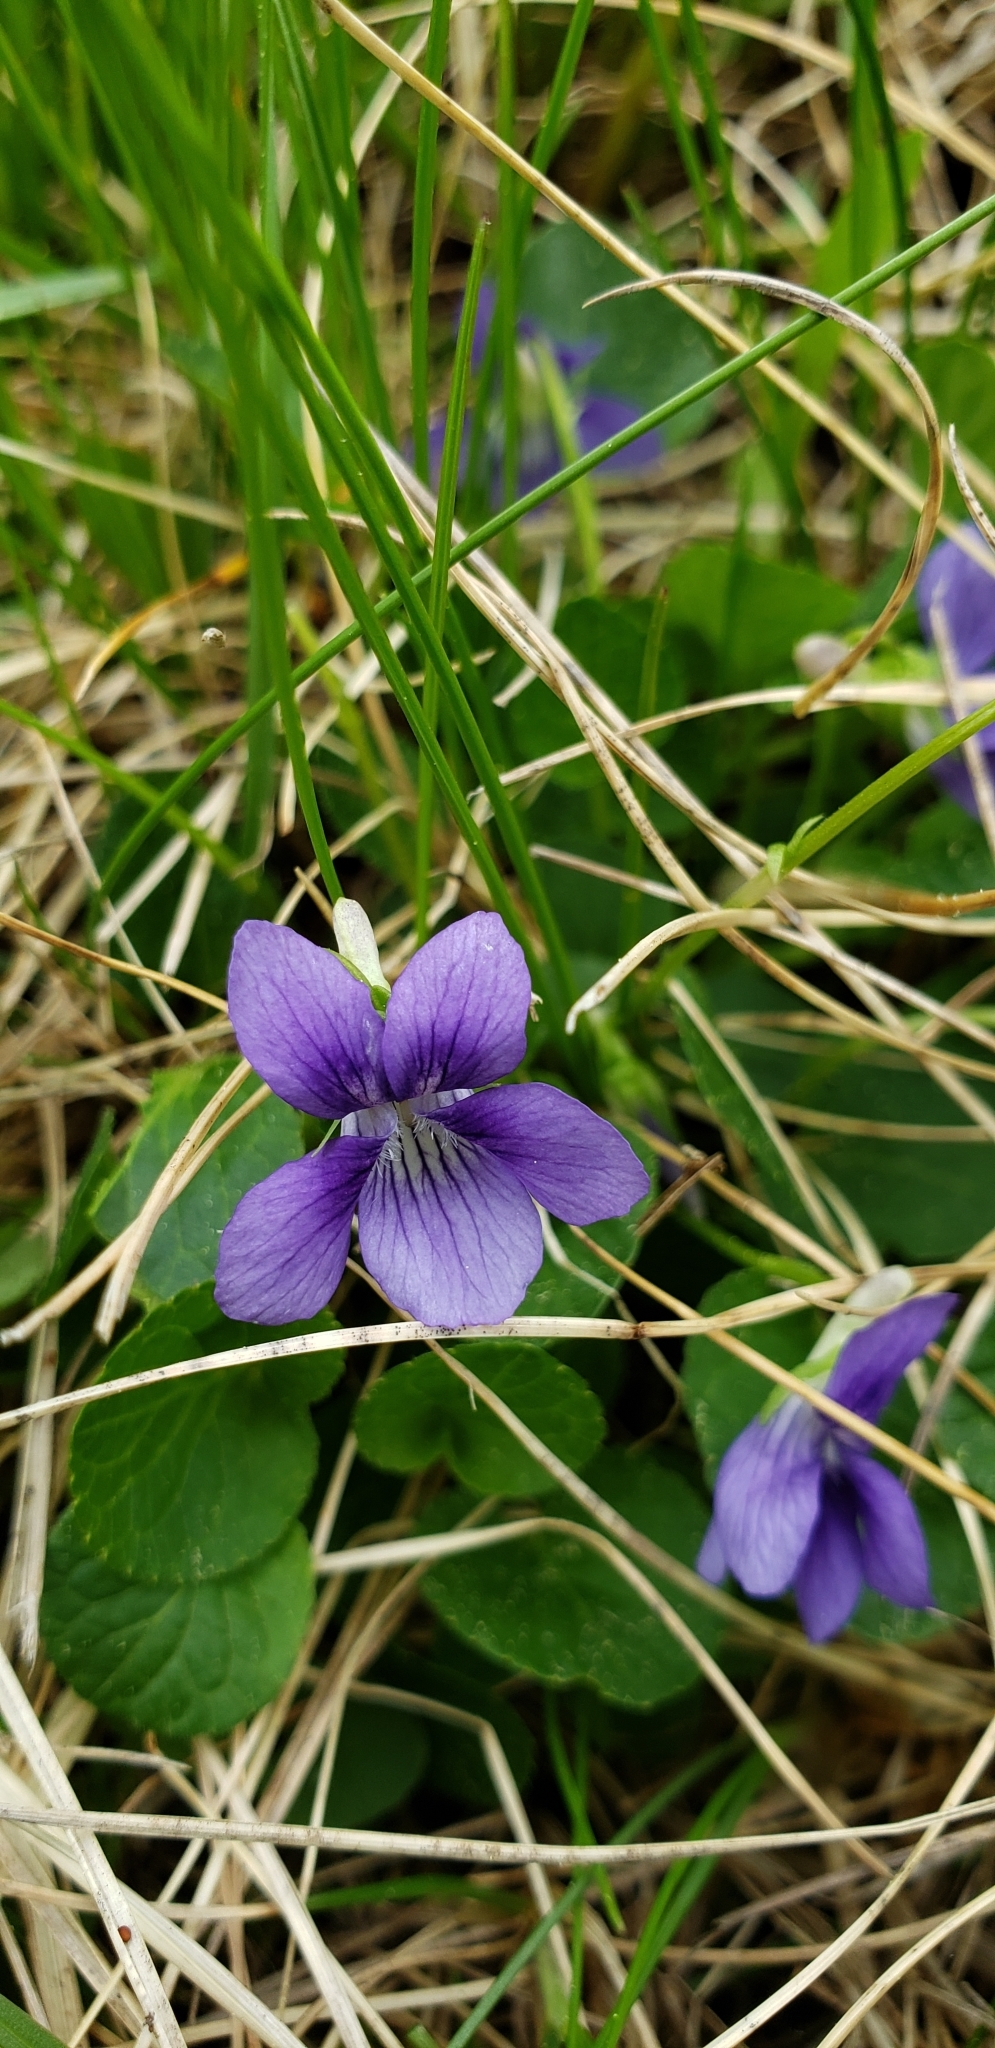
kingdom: Plantae
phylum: Tracheophyta
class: Magnoliopsida
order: Malpighiales
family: Violaceae
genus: Viola
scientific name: Viola adunca
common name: Sand violet
